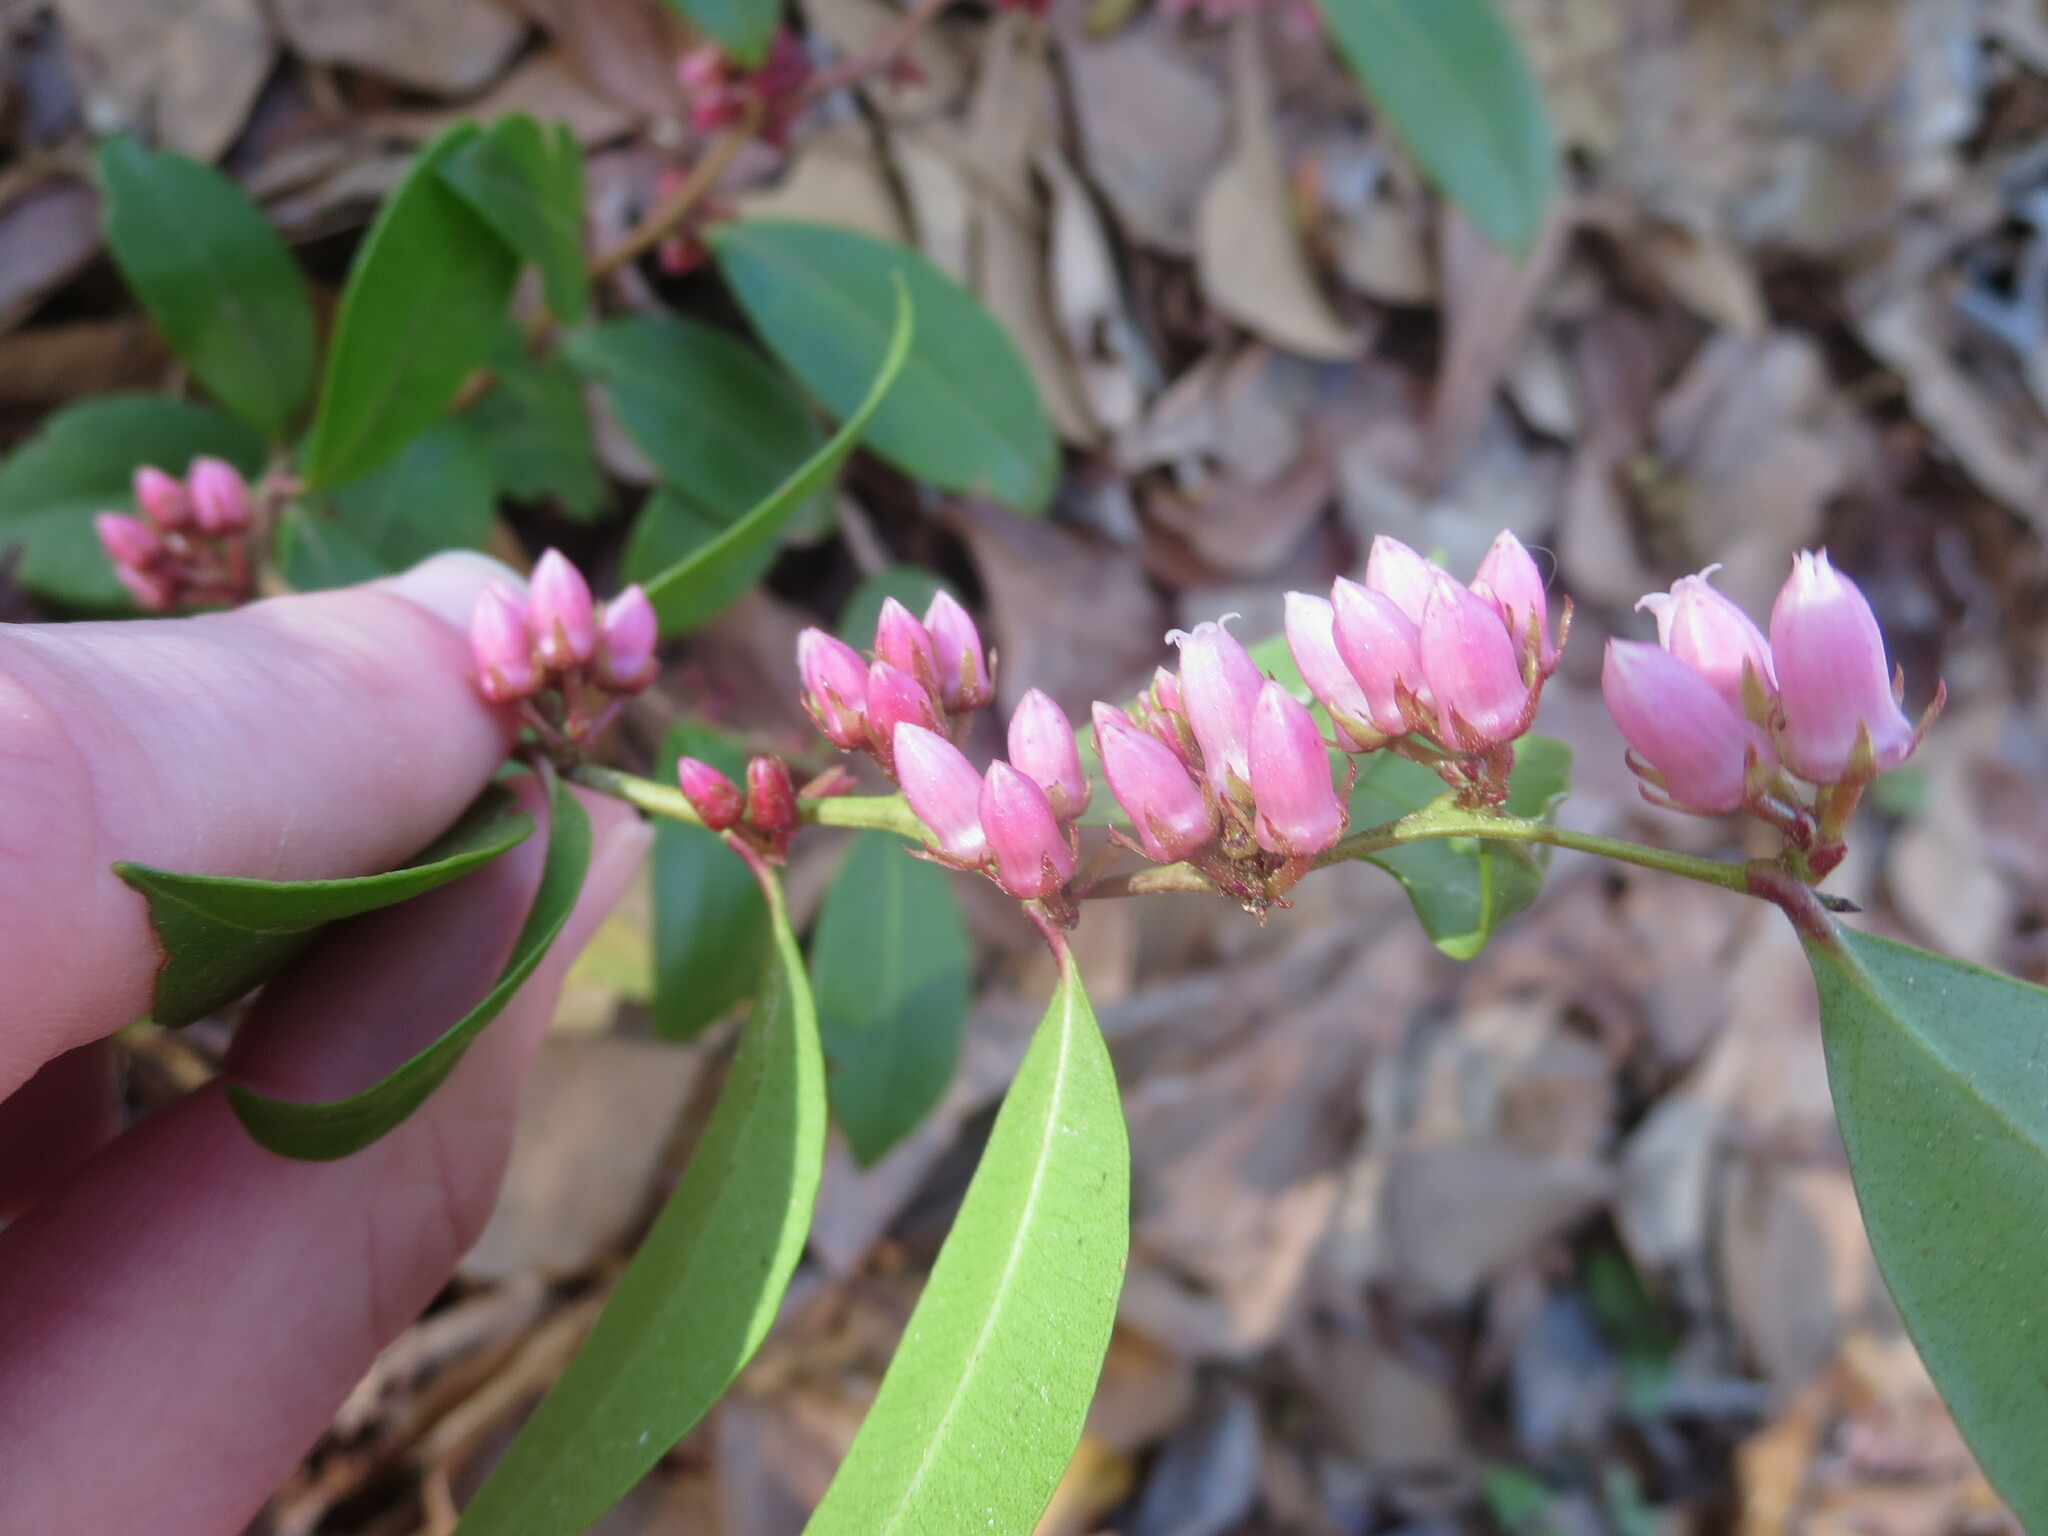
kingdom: Plantae
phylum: Tracheophyta
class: Magnoliopsida
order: Ericales
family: Ericaceae
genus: Lyonia
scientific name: Lyonia lucida
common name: Fetterbush
